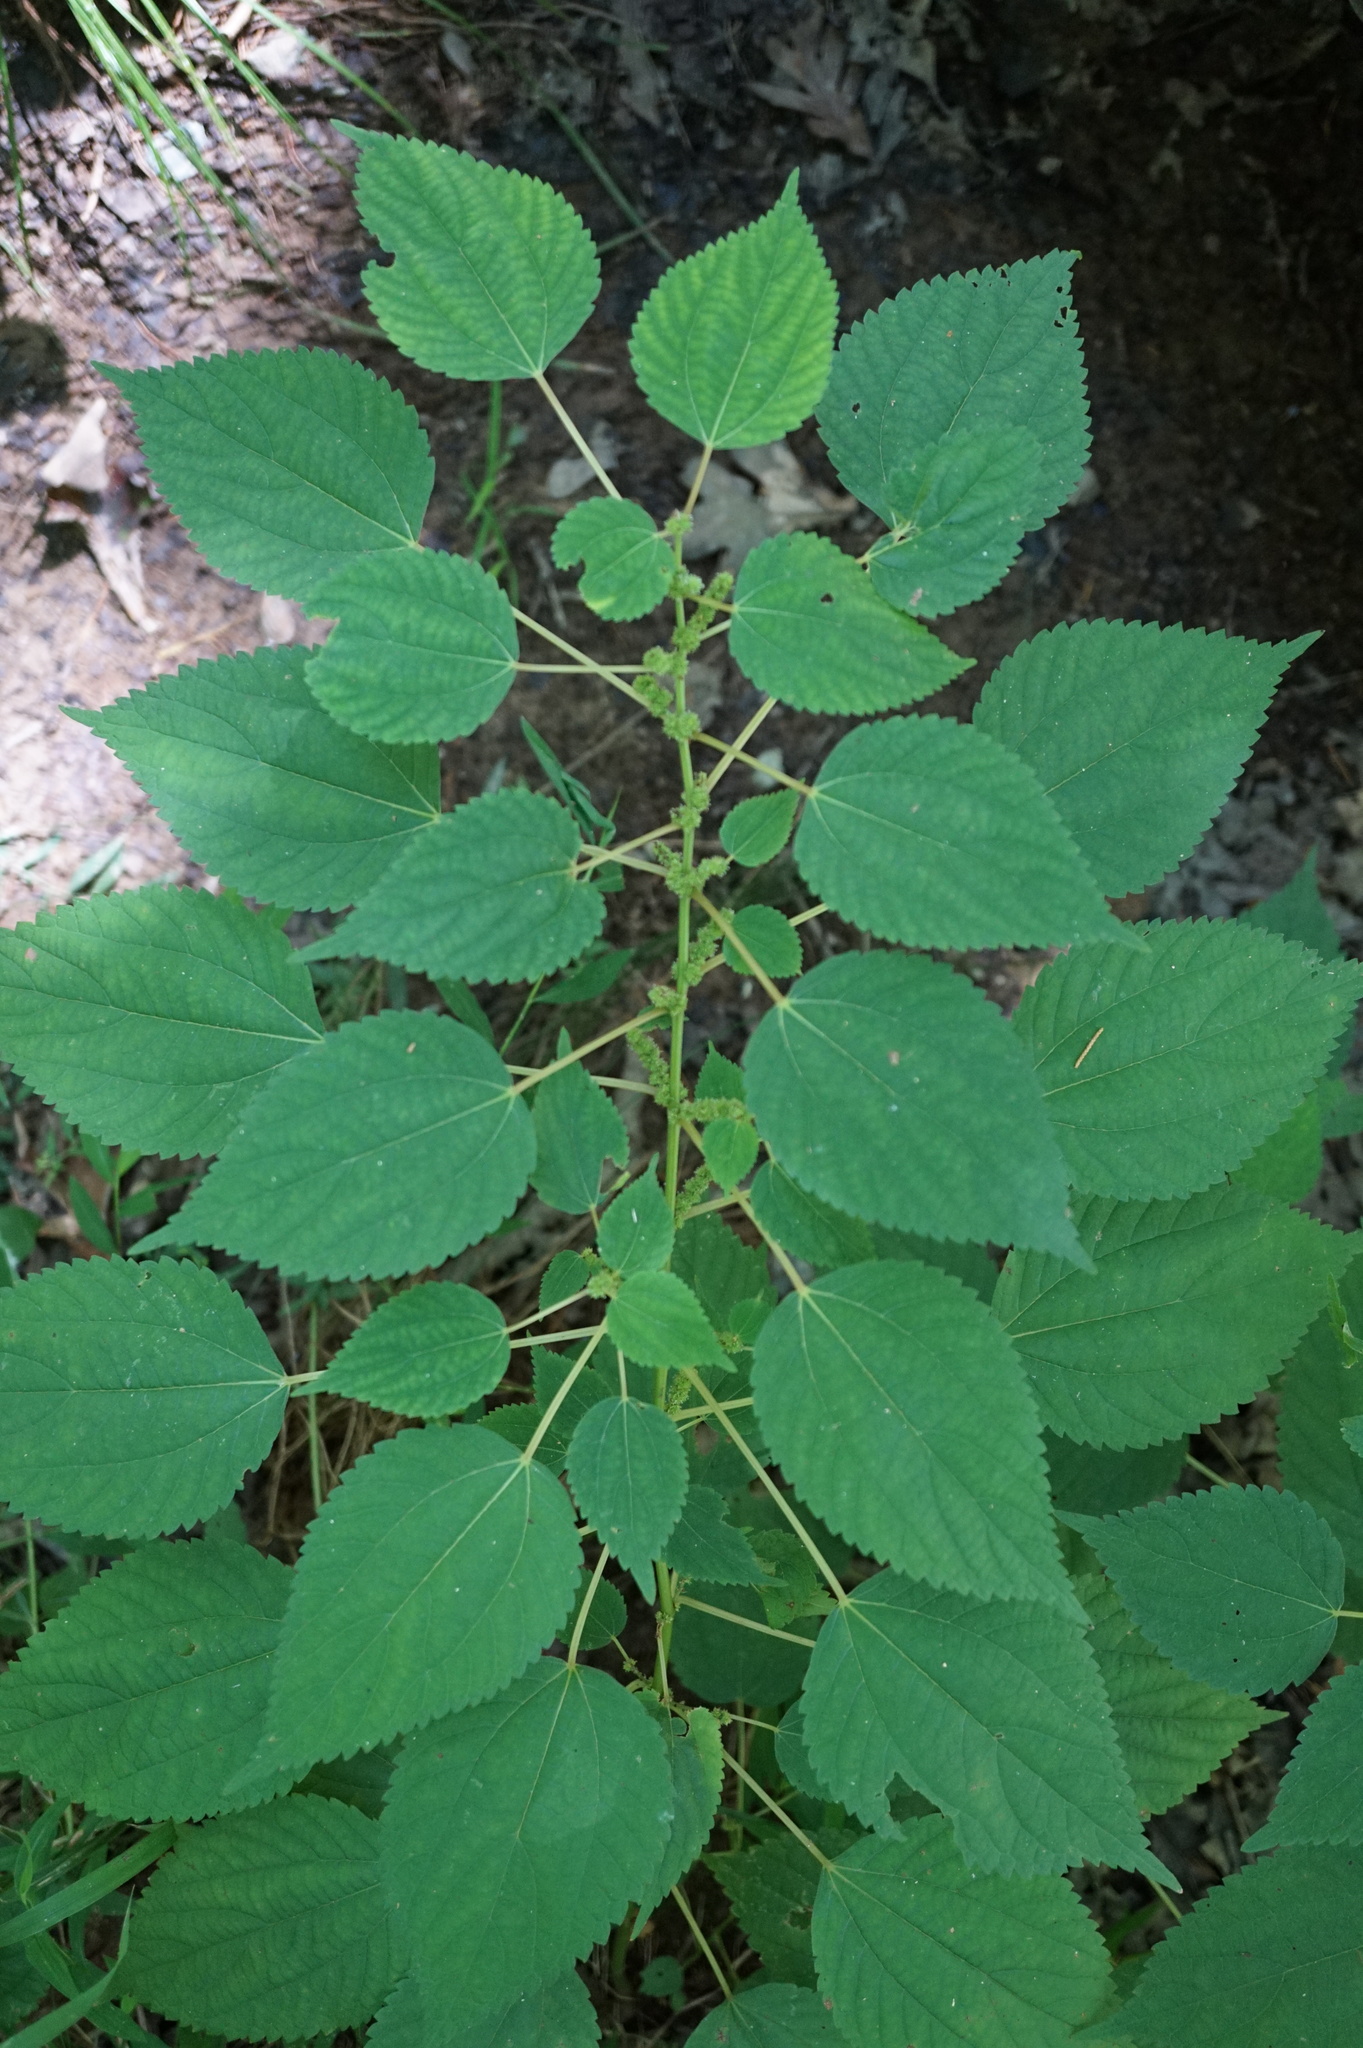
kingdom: Plantae
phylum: Tracheophyta
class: Magnoliopsida
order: Rosales
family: Urticaceae
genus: Laportea
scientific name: Laportea canadensis
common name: Canada nettle
